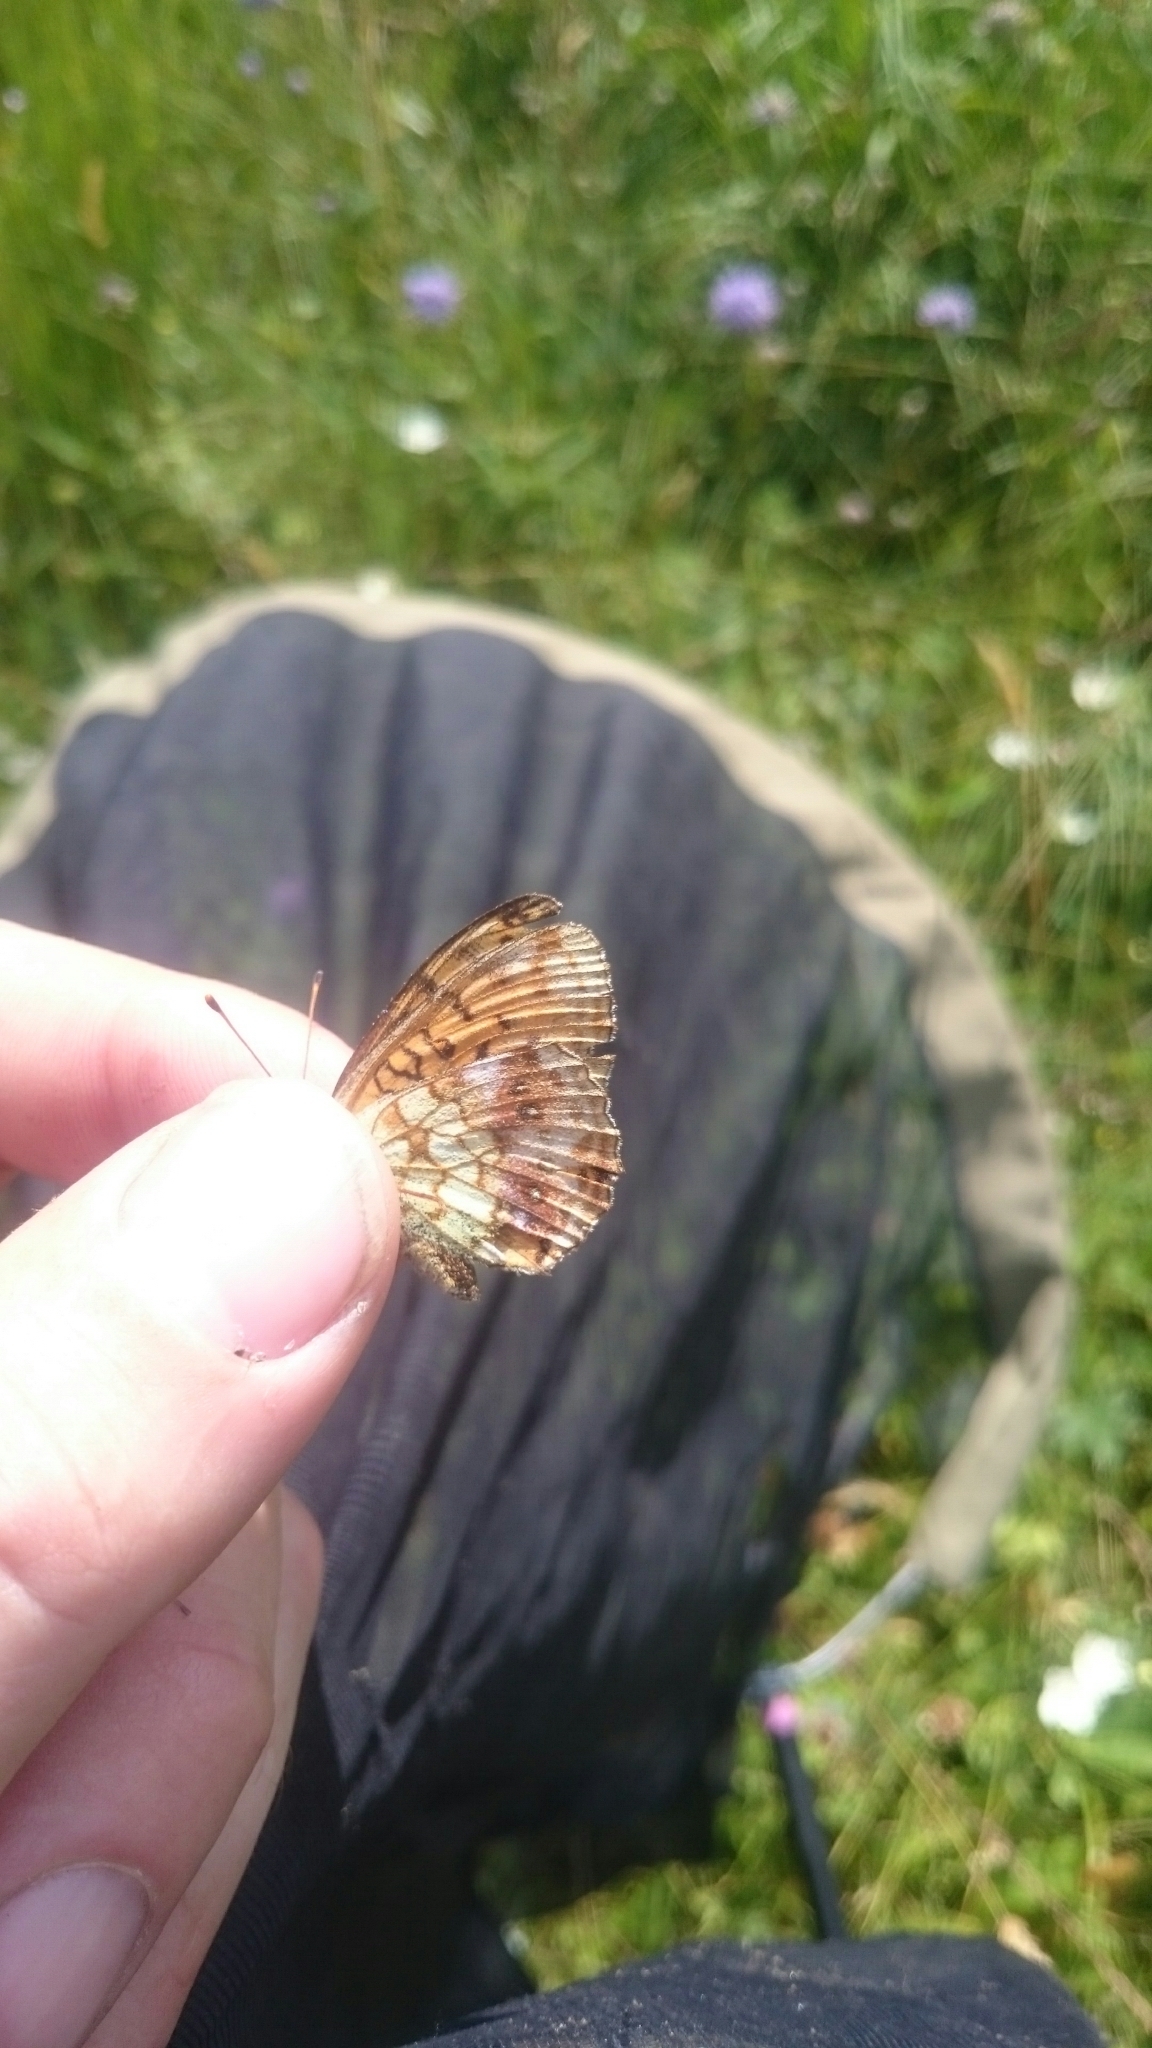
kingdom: Animalia
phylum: Arthropoda
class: Insecta
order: Lepidoptera
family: Nymphalidae
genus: Brenthis
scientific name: Brenthis ino
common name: Lesser marbled fritillary
